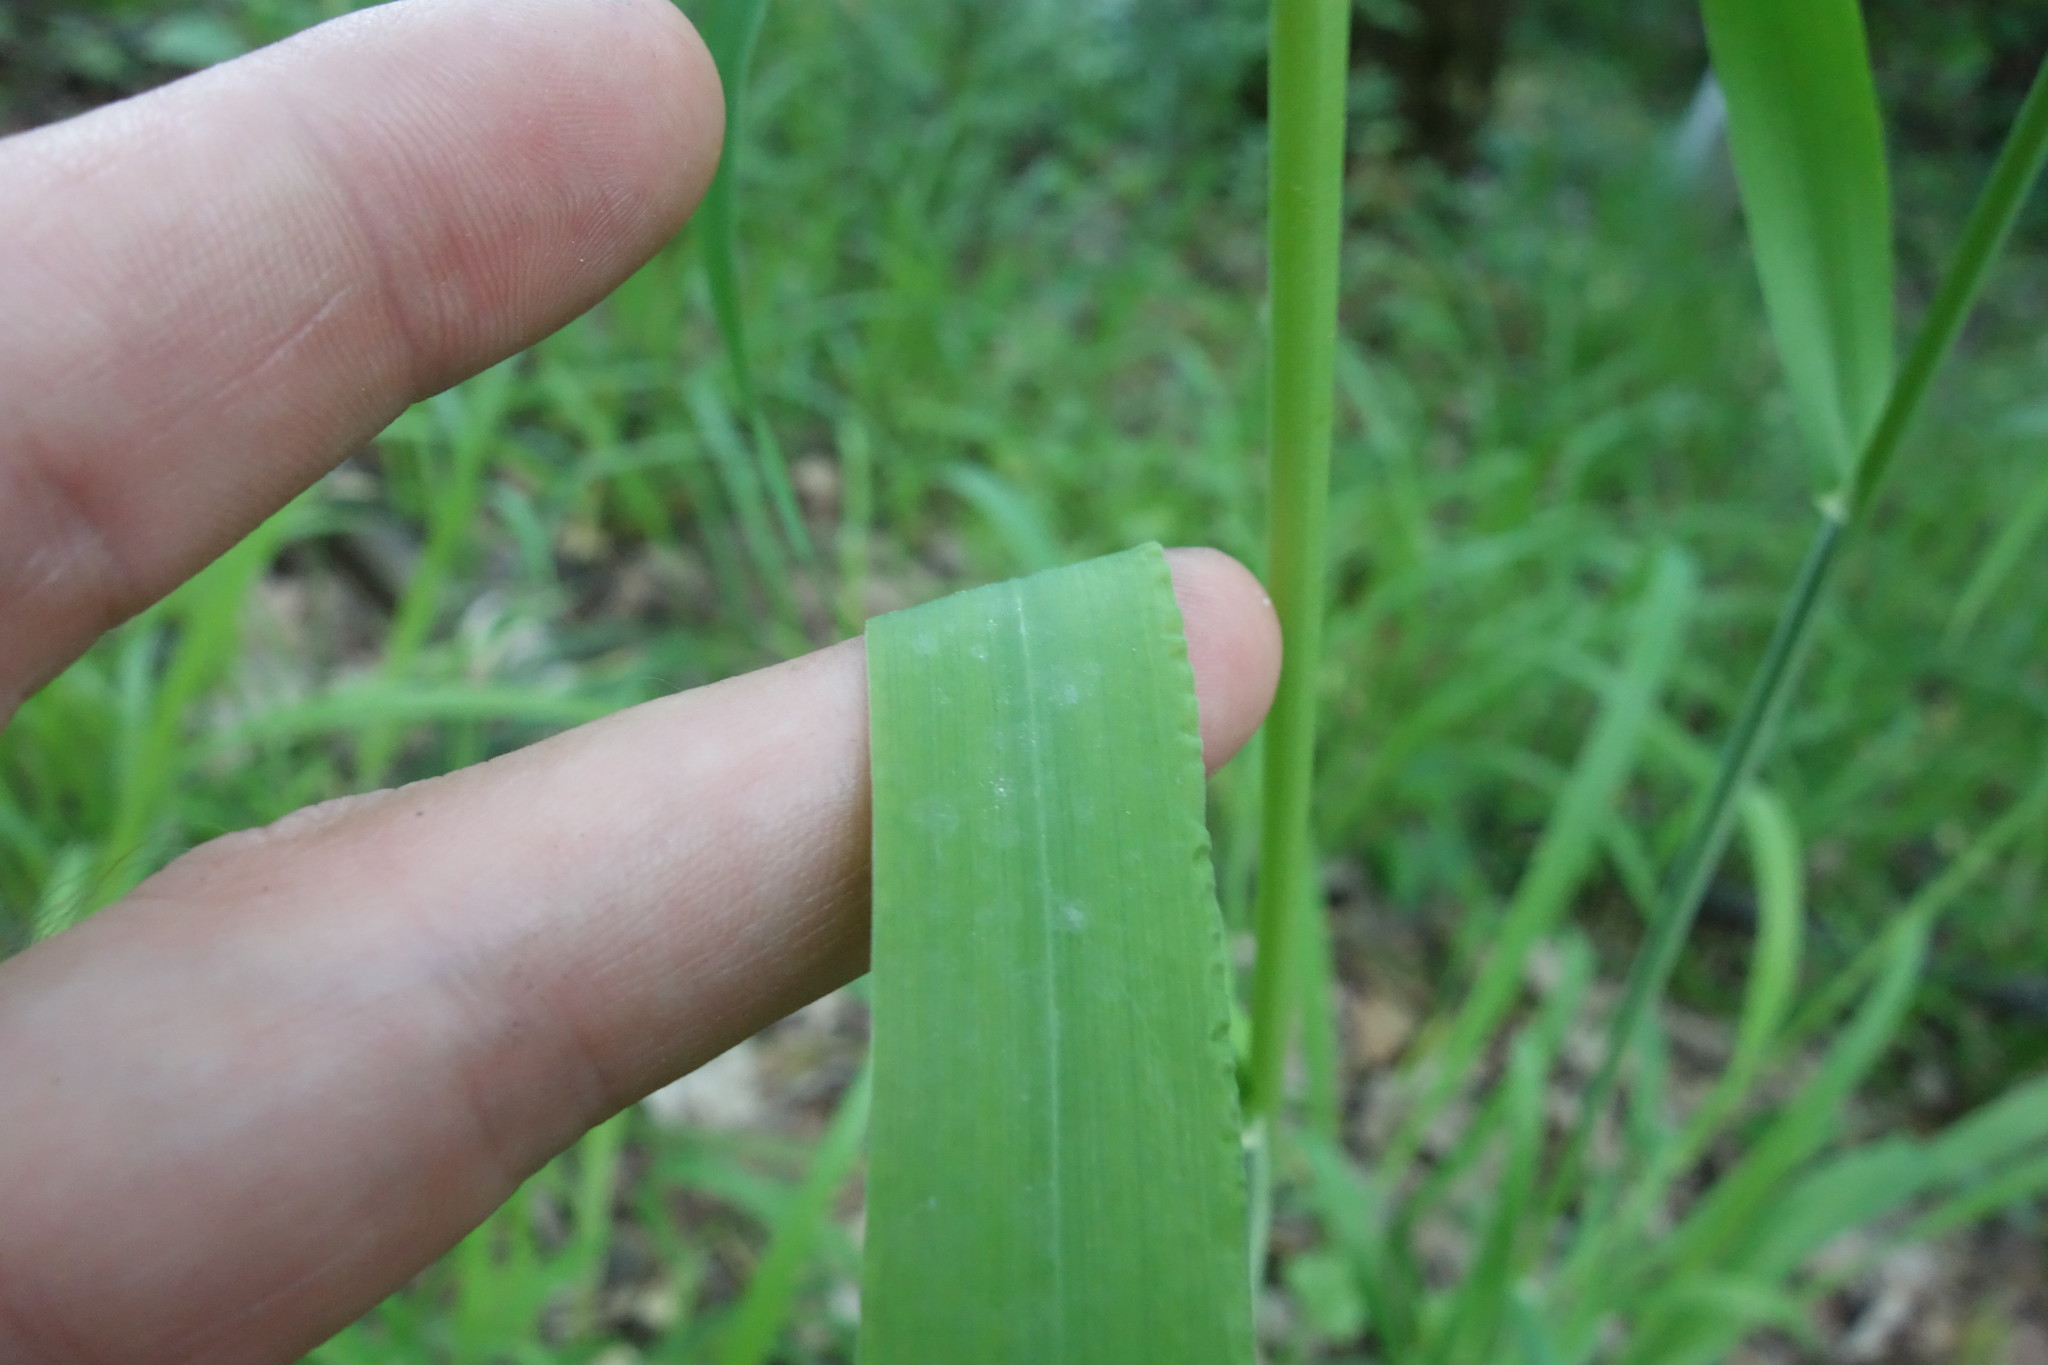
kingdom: Plantae
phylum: Tracheophyta
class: Liliopsida
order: Poales
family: Poaceae
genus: Milium
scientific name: Milium effusum
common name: Wood millet
